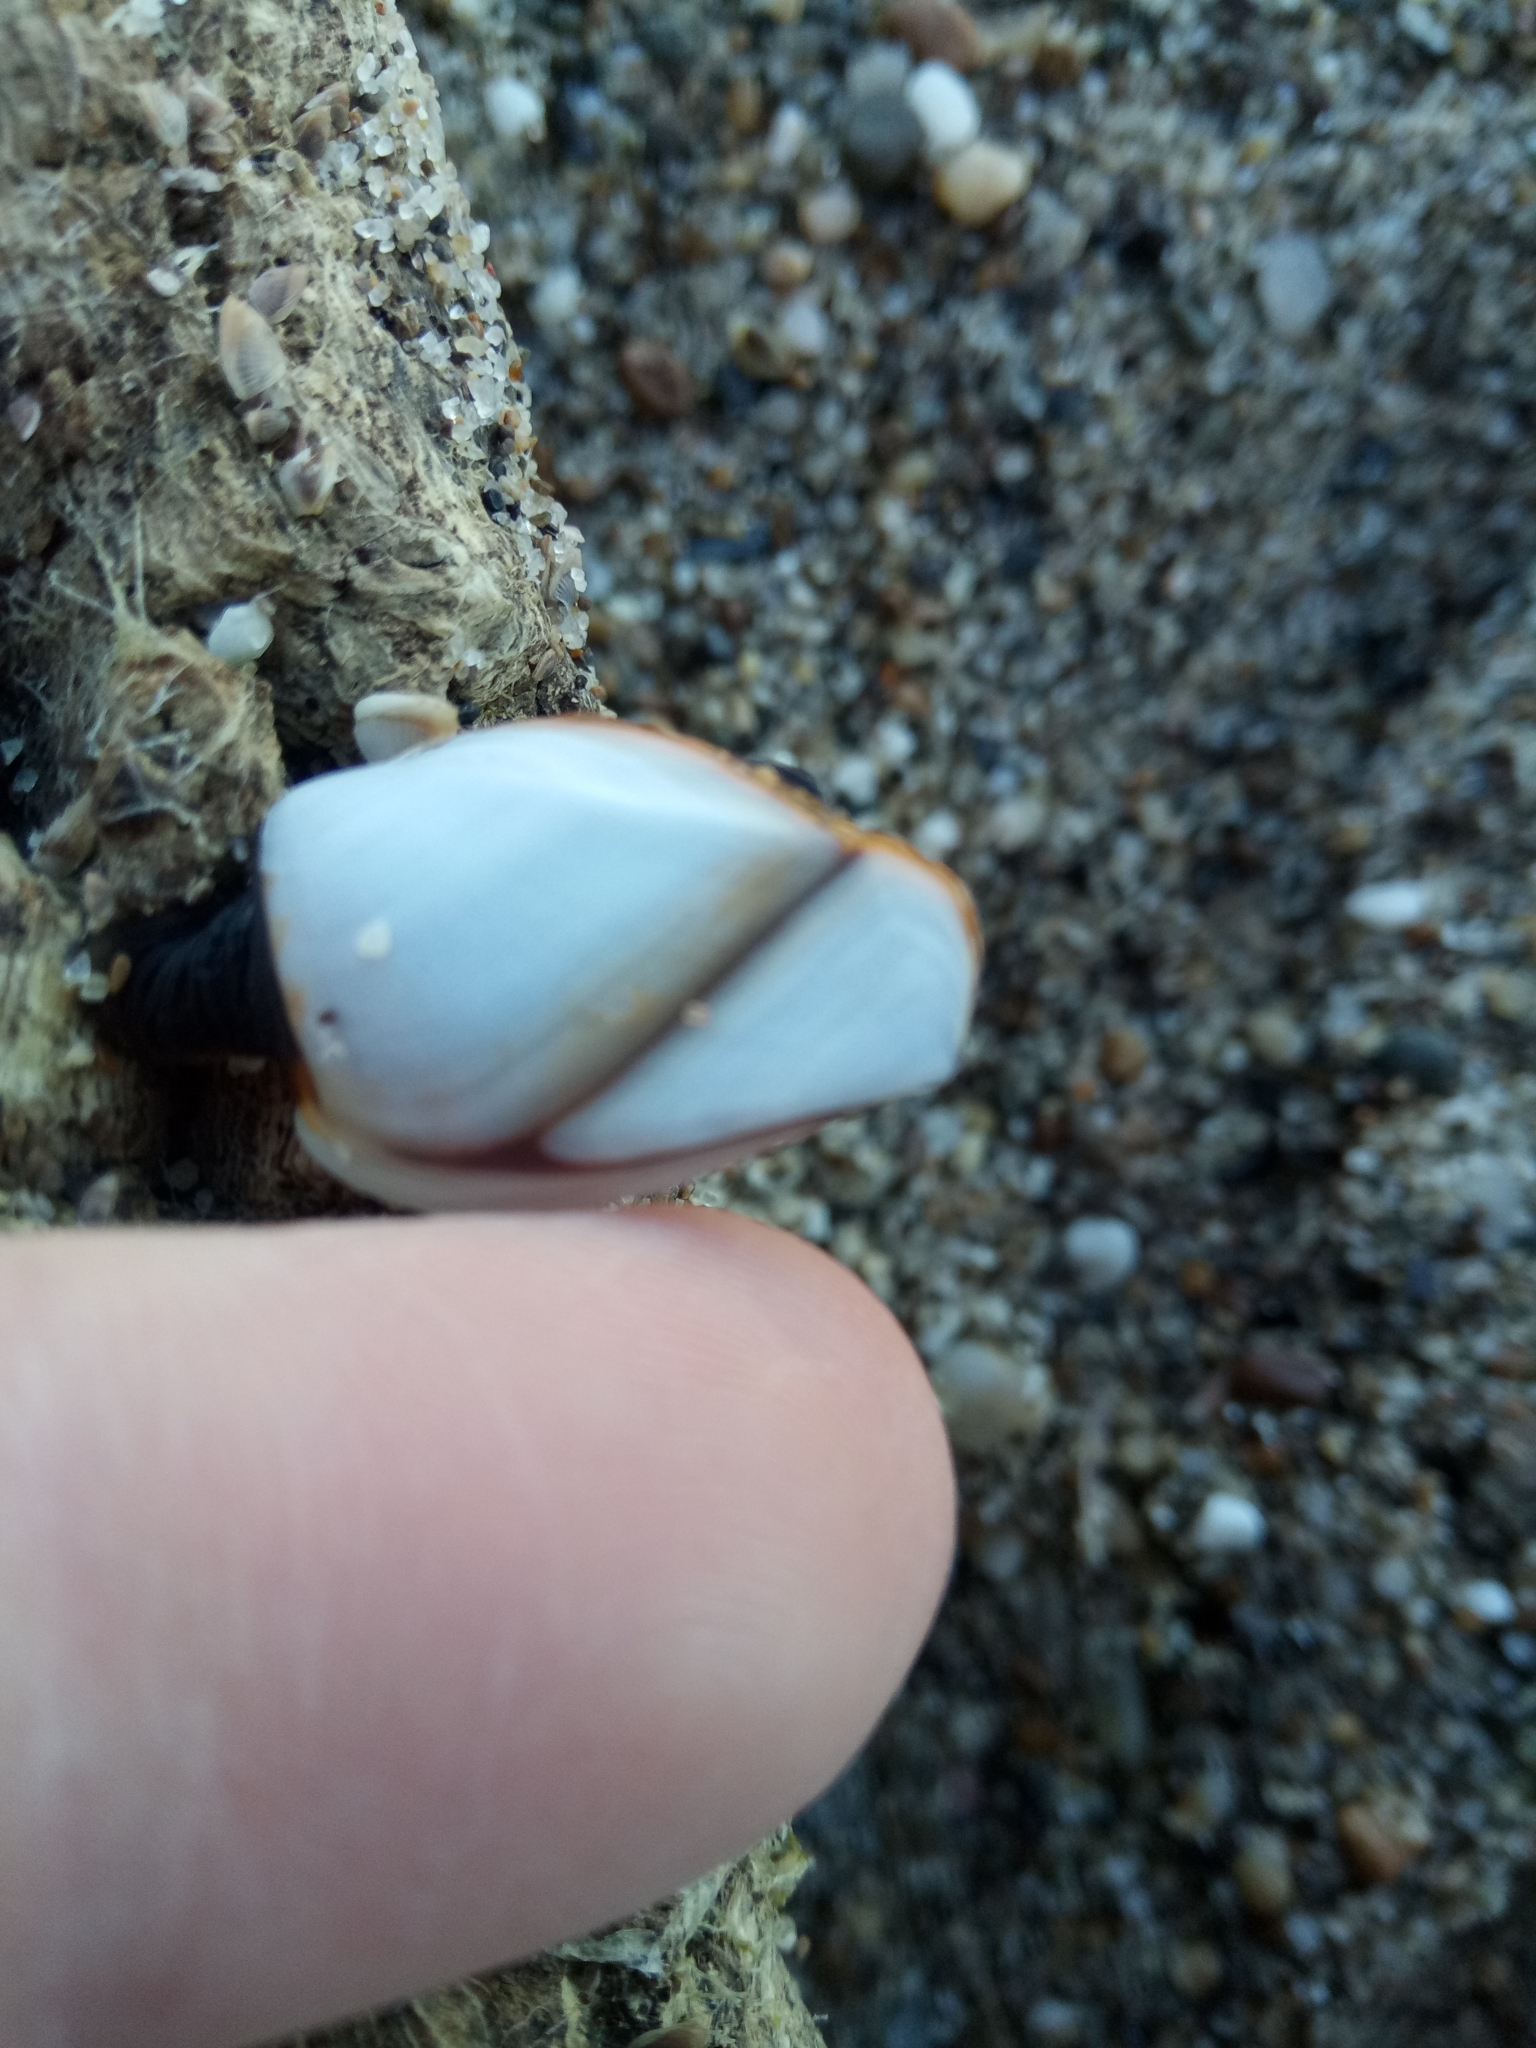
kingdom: Animalia
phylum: Arthropoda
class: Maxillopoda
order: Pedunculata
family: Lepadidae
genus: Lepas
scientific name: Lepas anatifera
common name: Common goose barnacle
